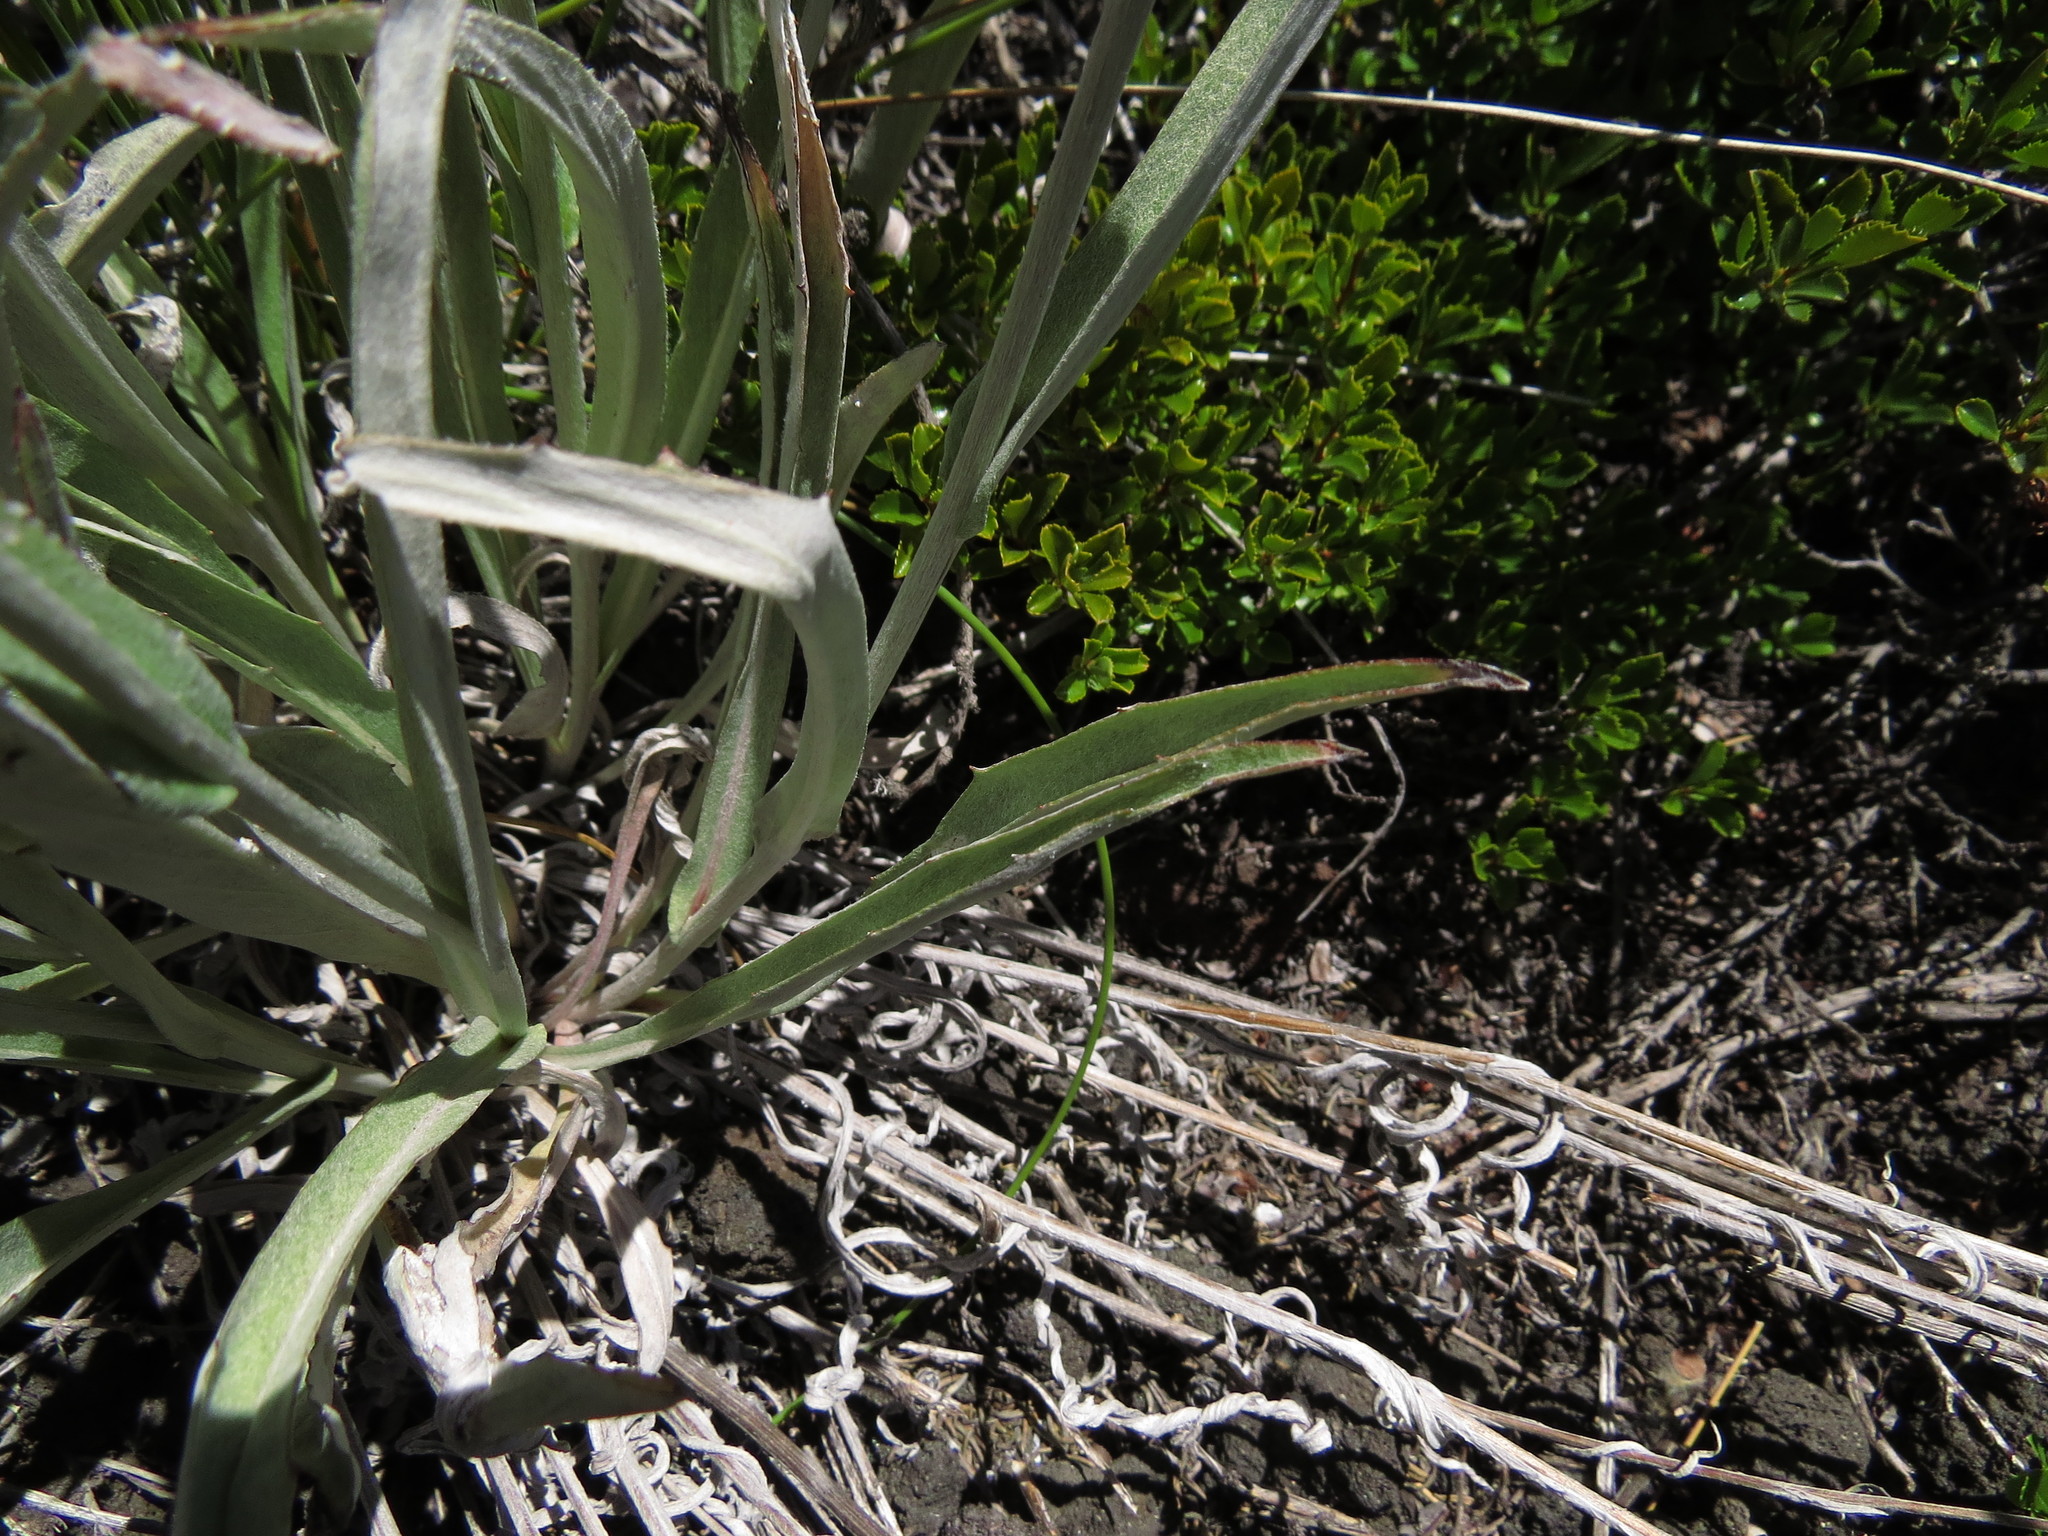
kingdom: Plantae
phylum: Tracheophyta
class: Magnoliopsida
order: Asterales
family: Asteraceae
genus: Leucheria
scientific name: Leucheria lithospermifolia
